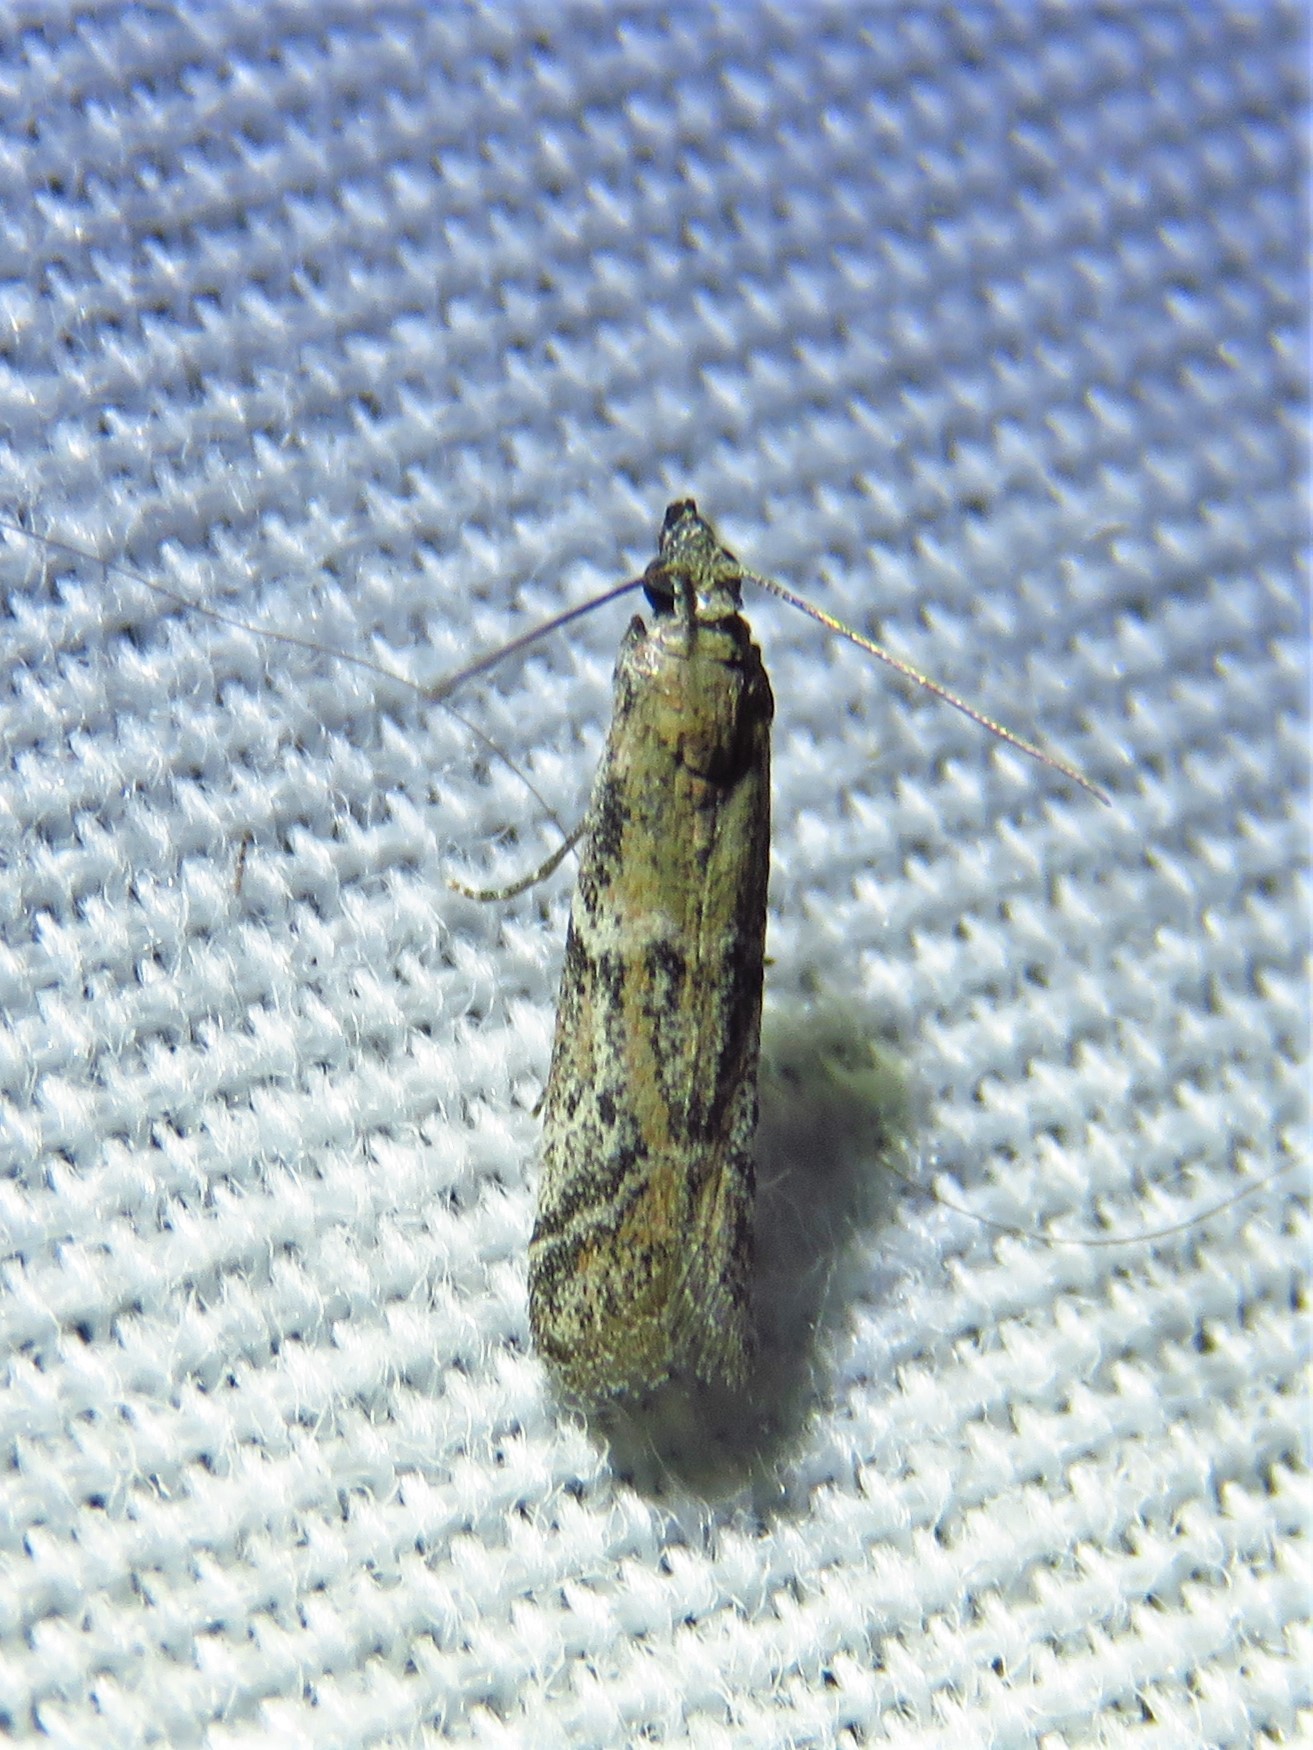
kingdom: Animalia
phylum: Arthropoda
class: Insecta
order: Lepidoptera
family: Pyralidae
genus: Ephestiodes
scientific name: Ephestiodes gilvescentella
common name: Moth
